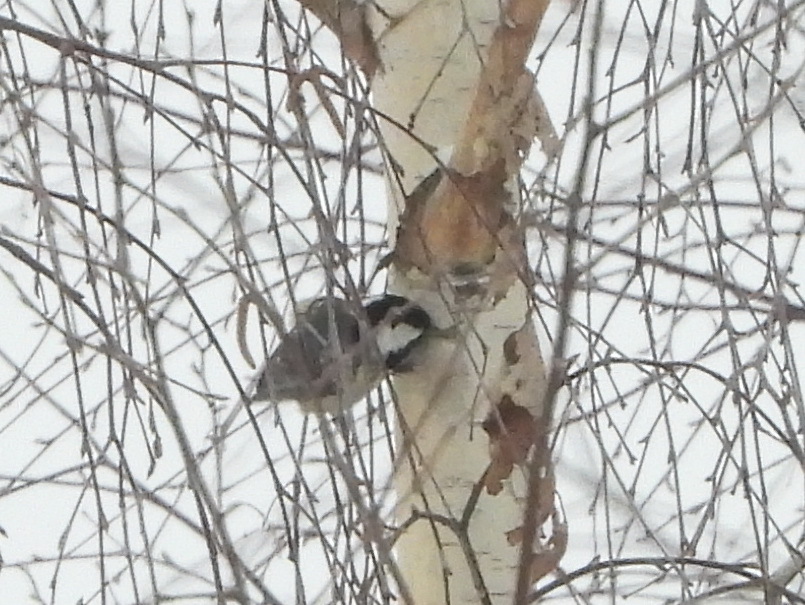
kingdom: Animalia
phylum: Chordata
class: Aves
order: Passeriformes
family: Paridae
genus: Periparus
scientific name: Periparus ater
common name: Coal tit
